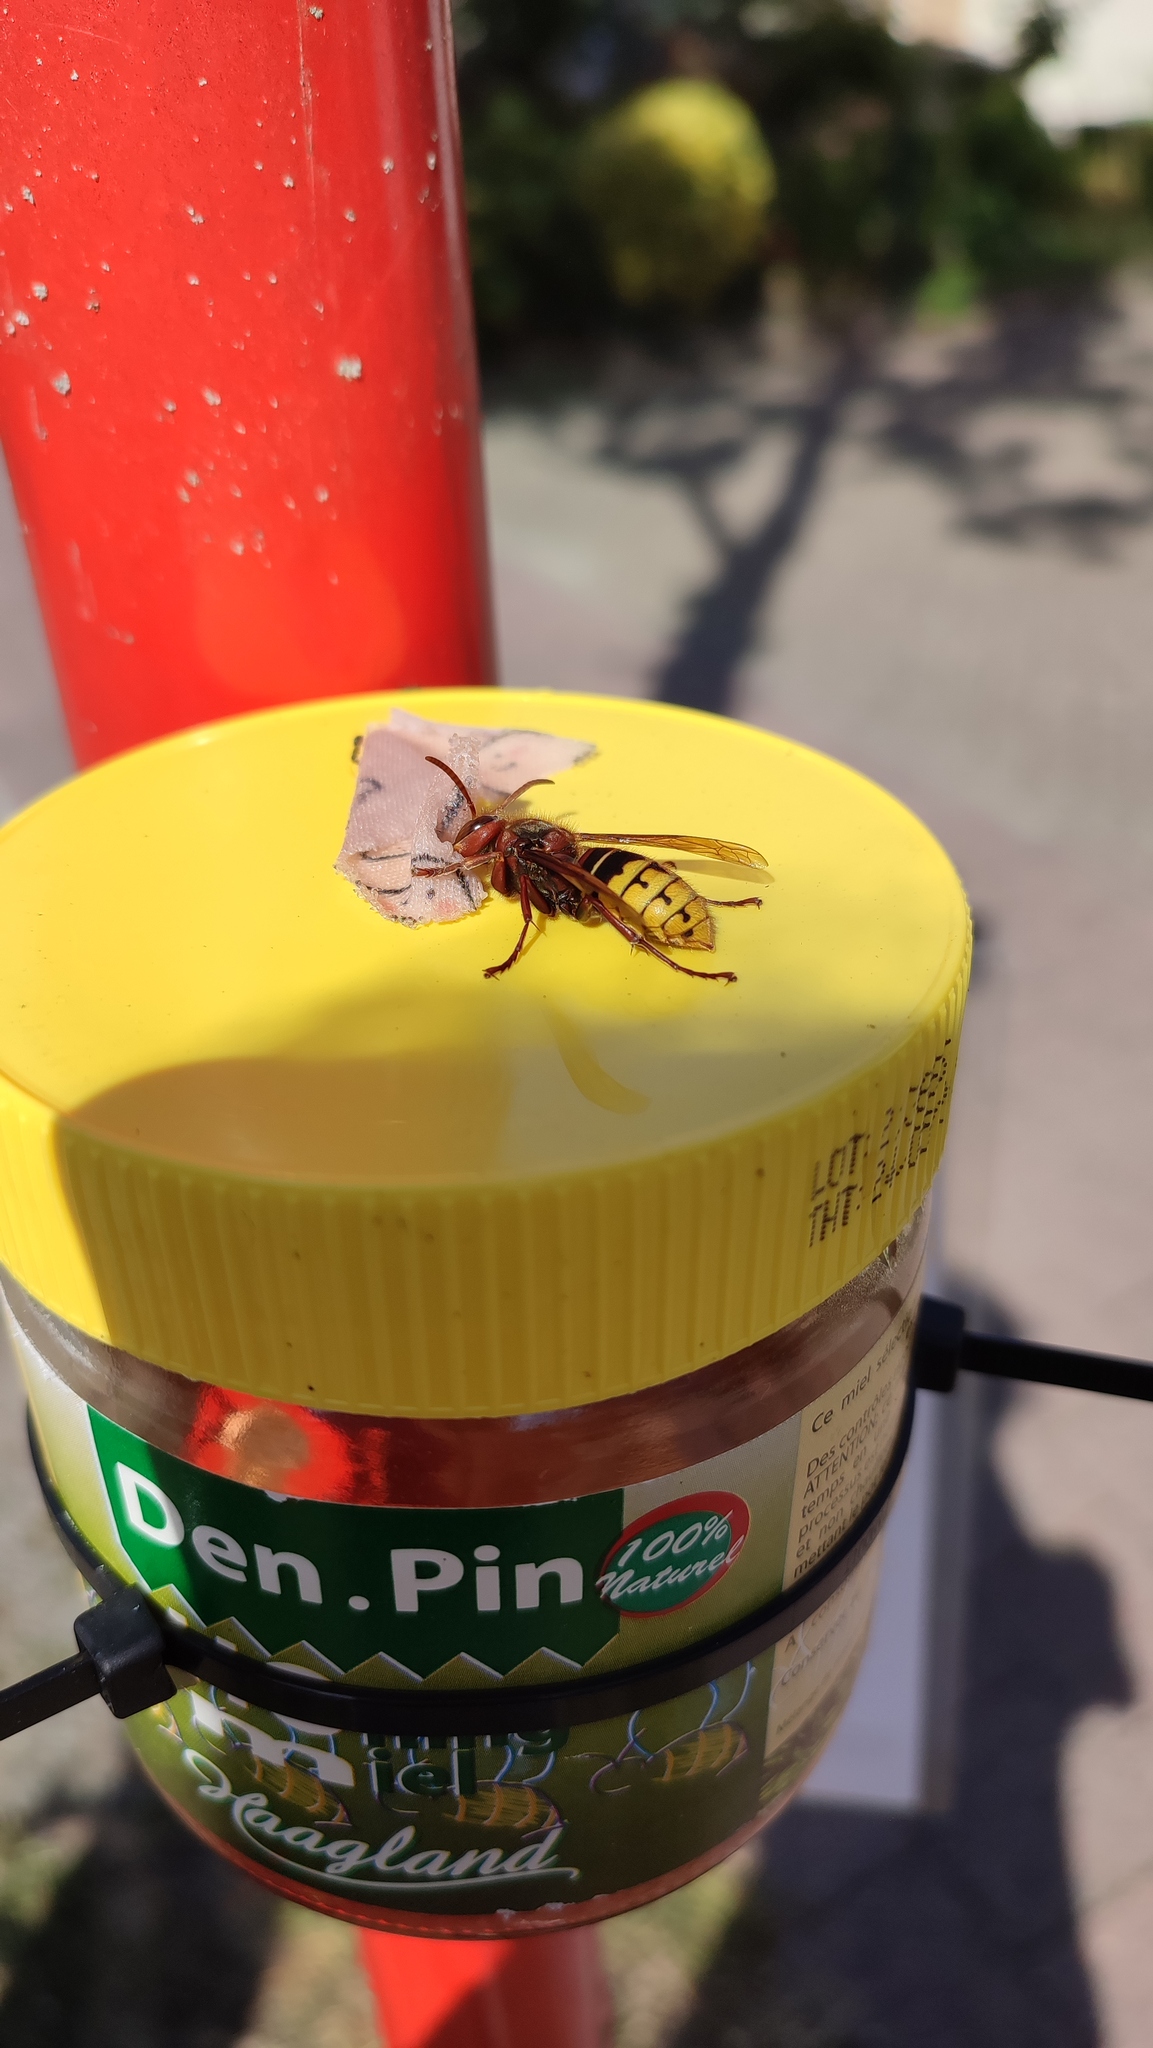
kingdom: Animalia
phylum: Arthropoda
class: Insecta
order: Hymenoptera
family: Vespidae
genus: Vespa
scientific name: Vespa crabro
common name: Hornet
